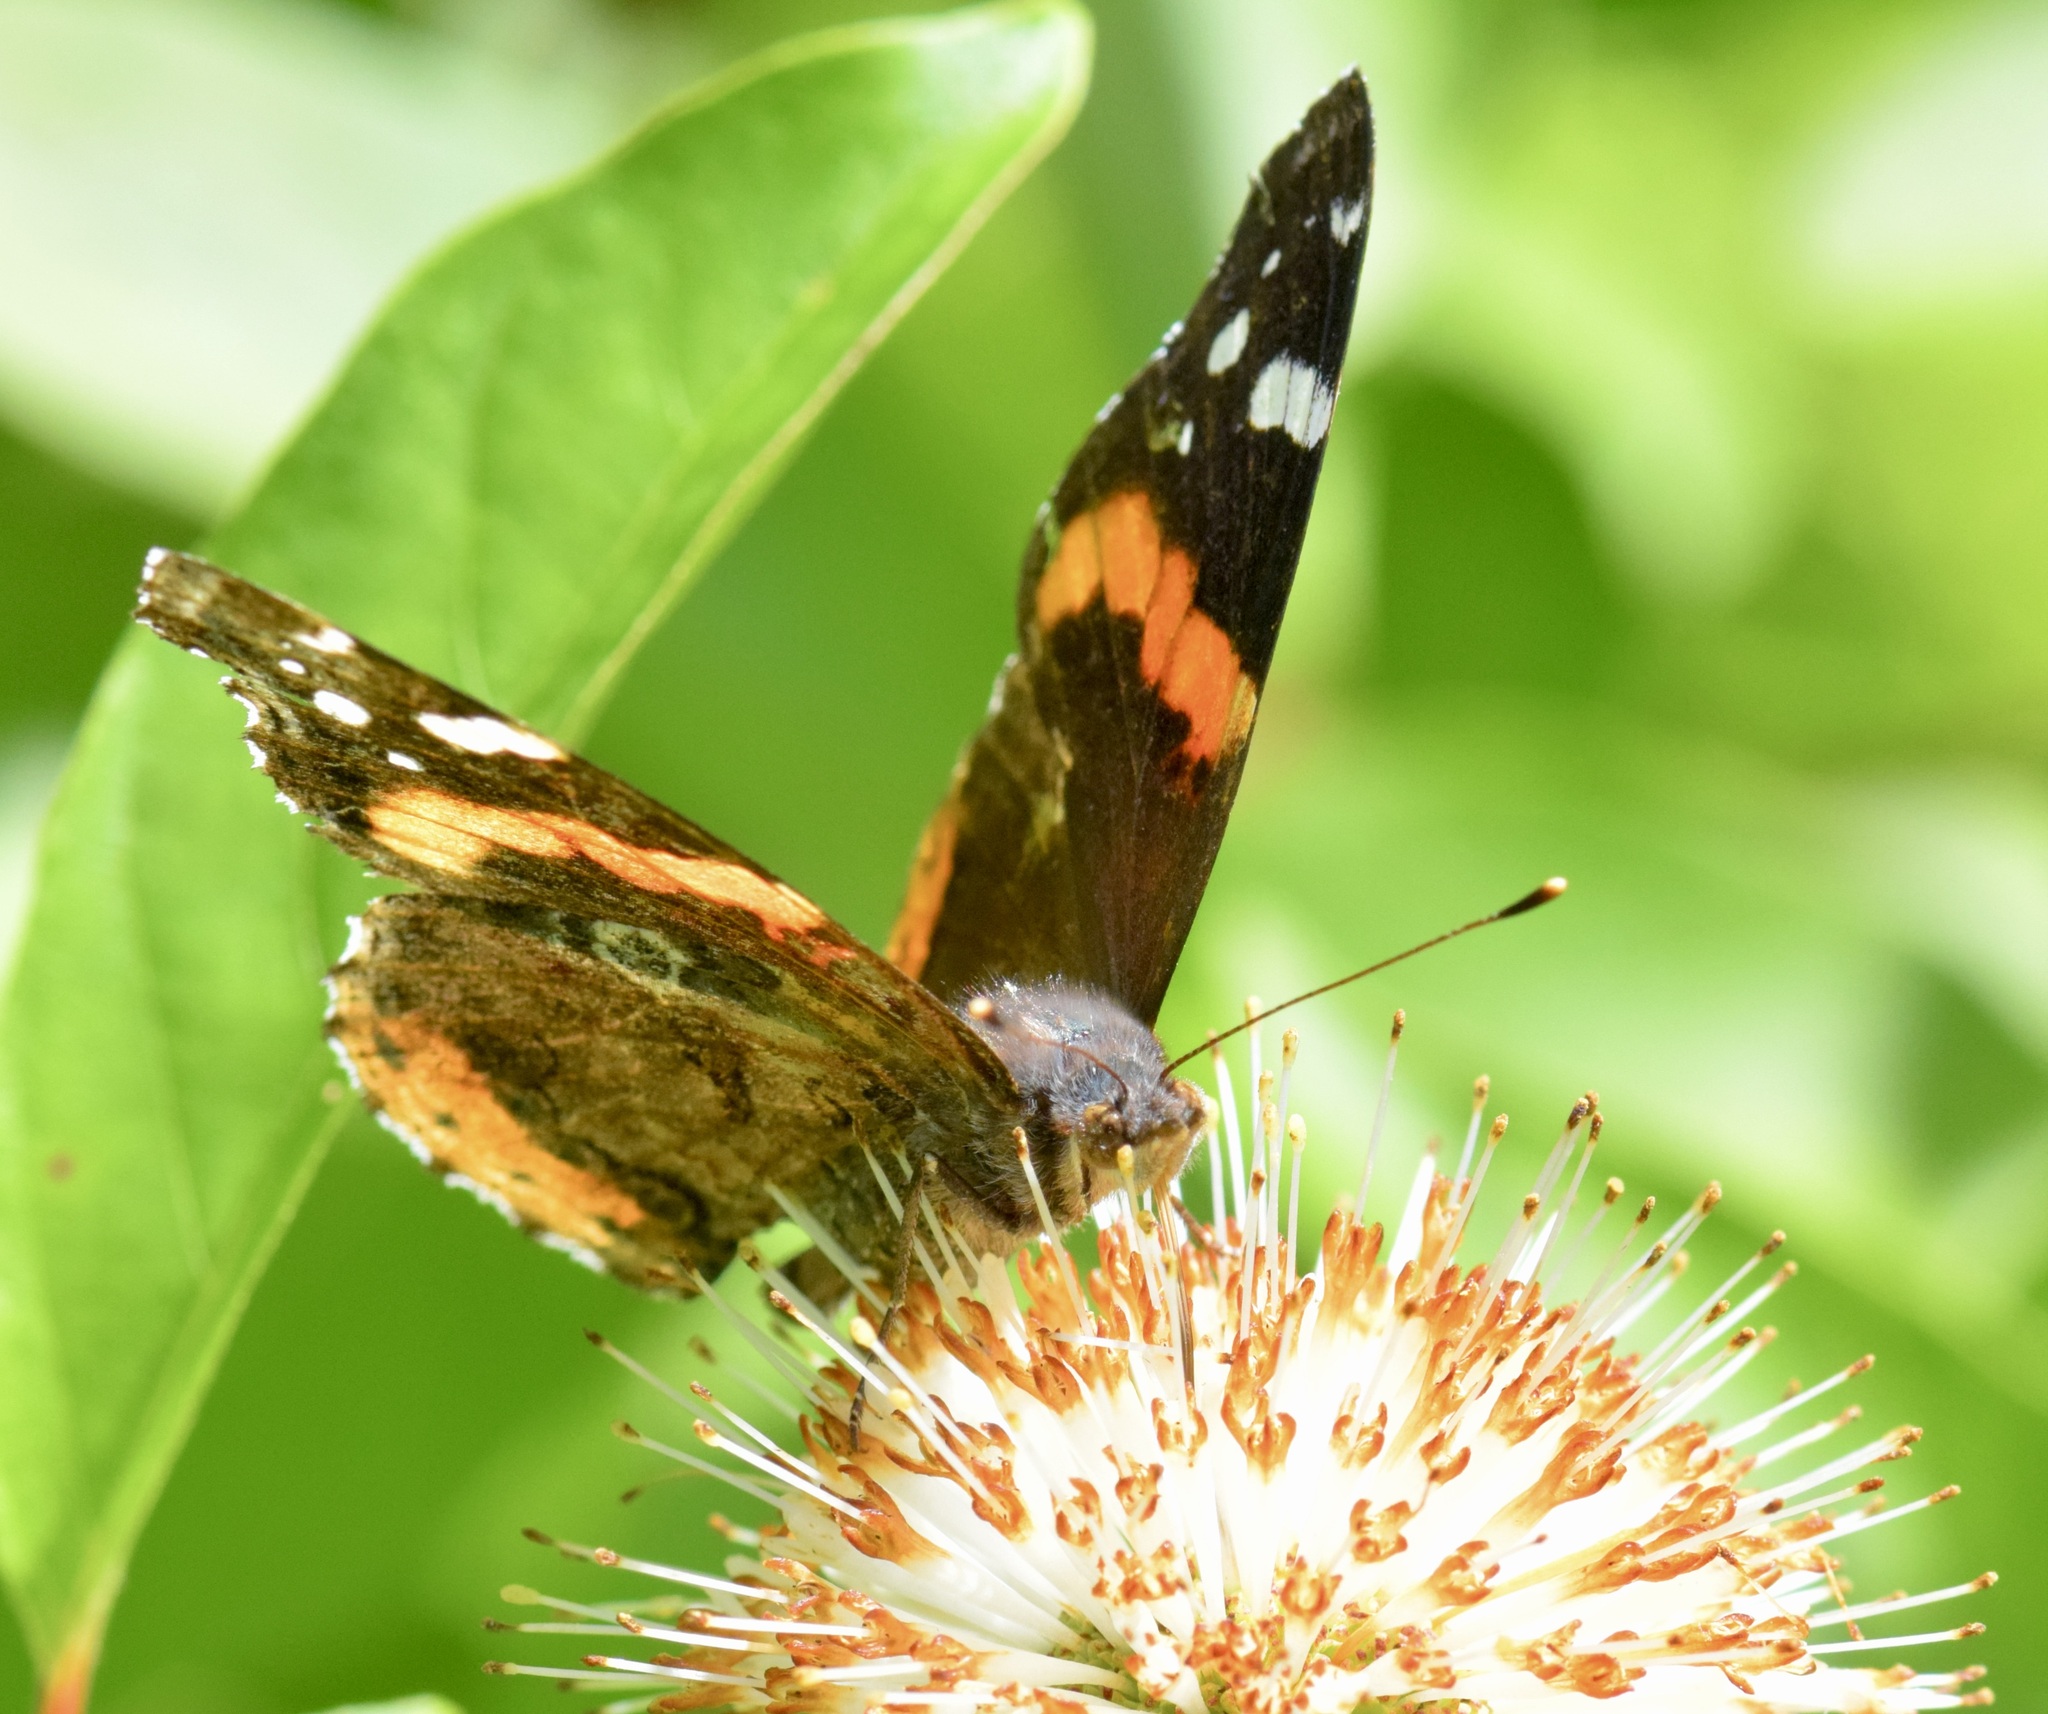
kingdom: Animalia
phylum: Arthropoda
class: Insecta
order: Lepidoptera
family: Nymphalidae
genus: Vanessa
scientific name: Vanessa atalanta
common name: Red admiral
